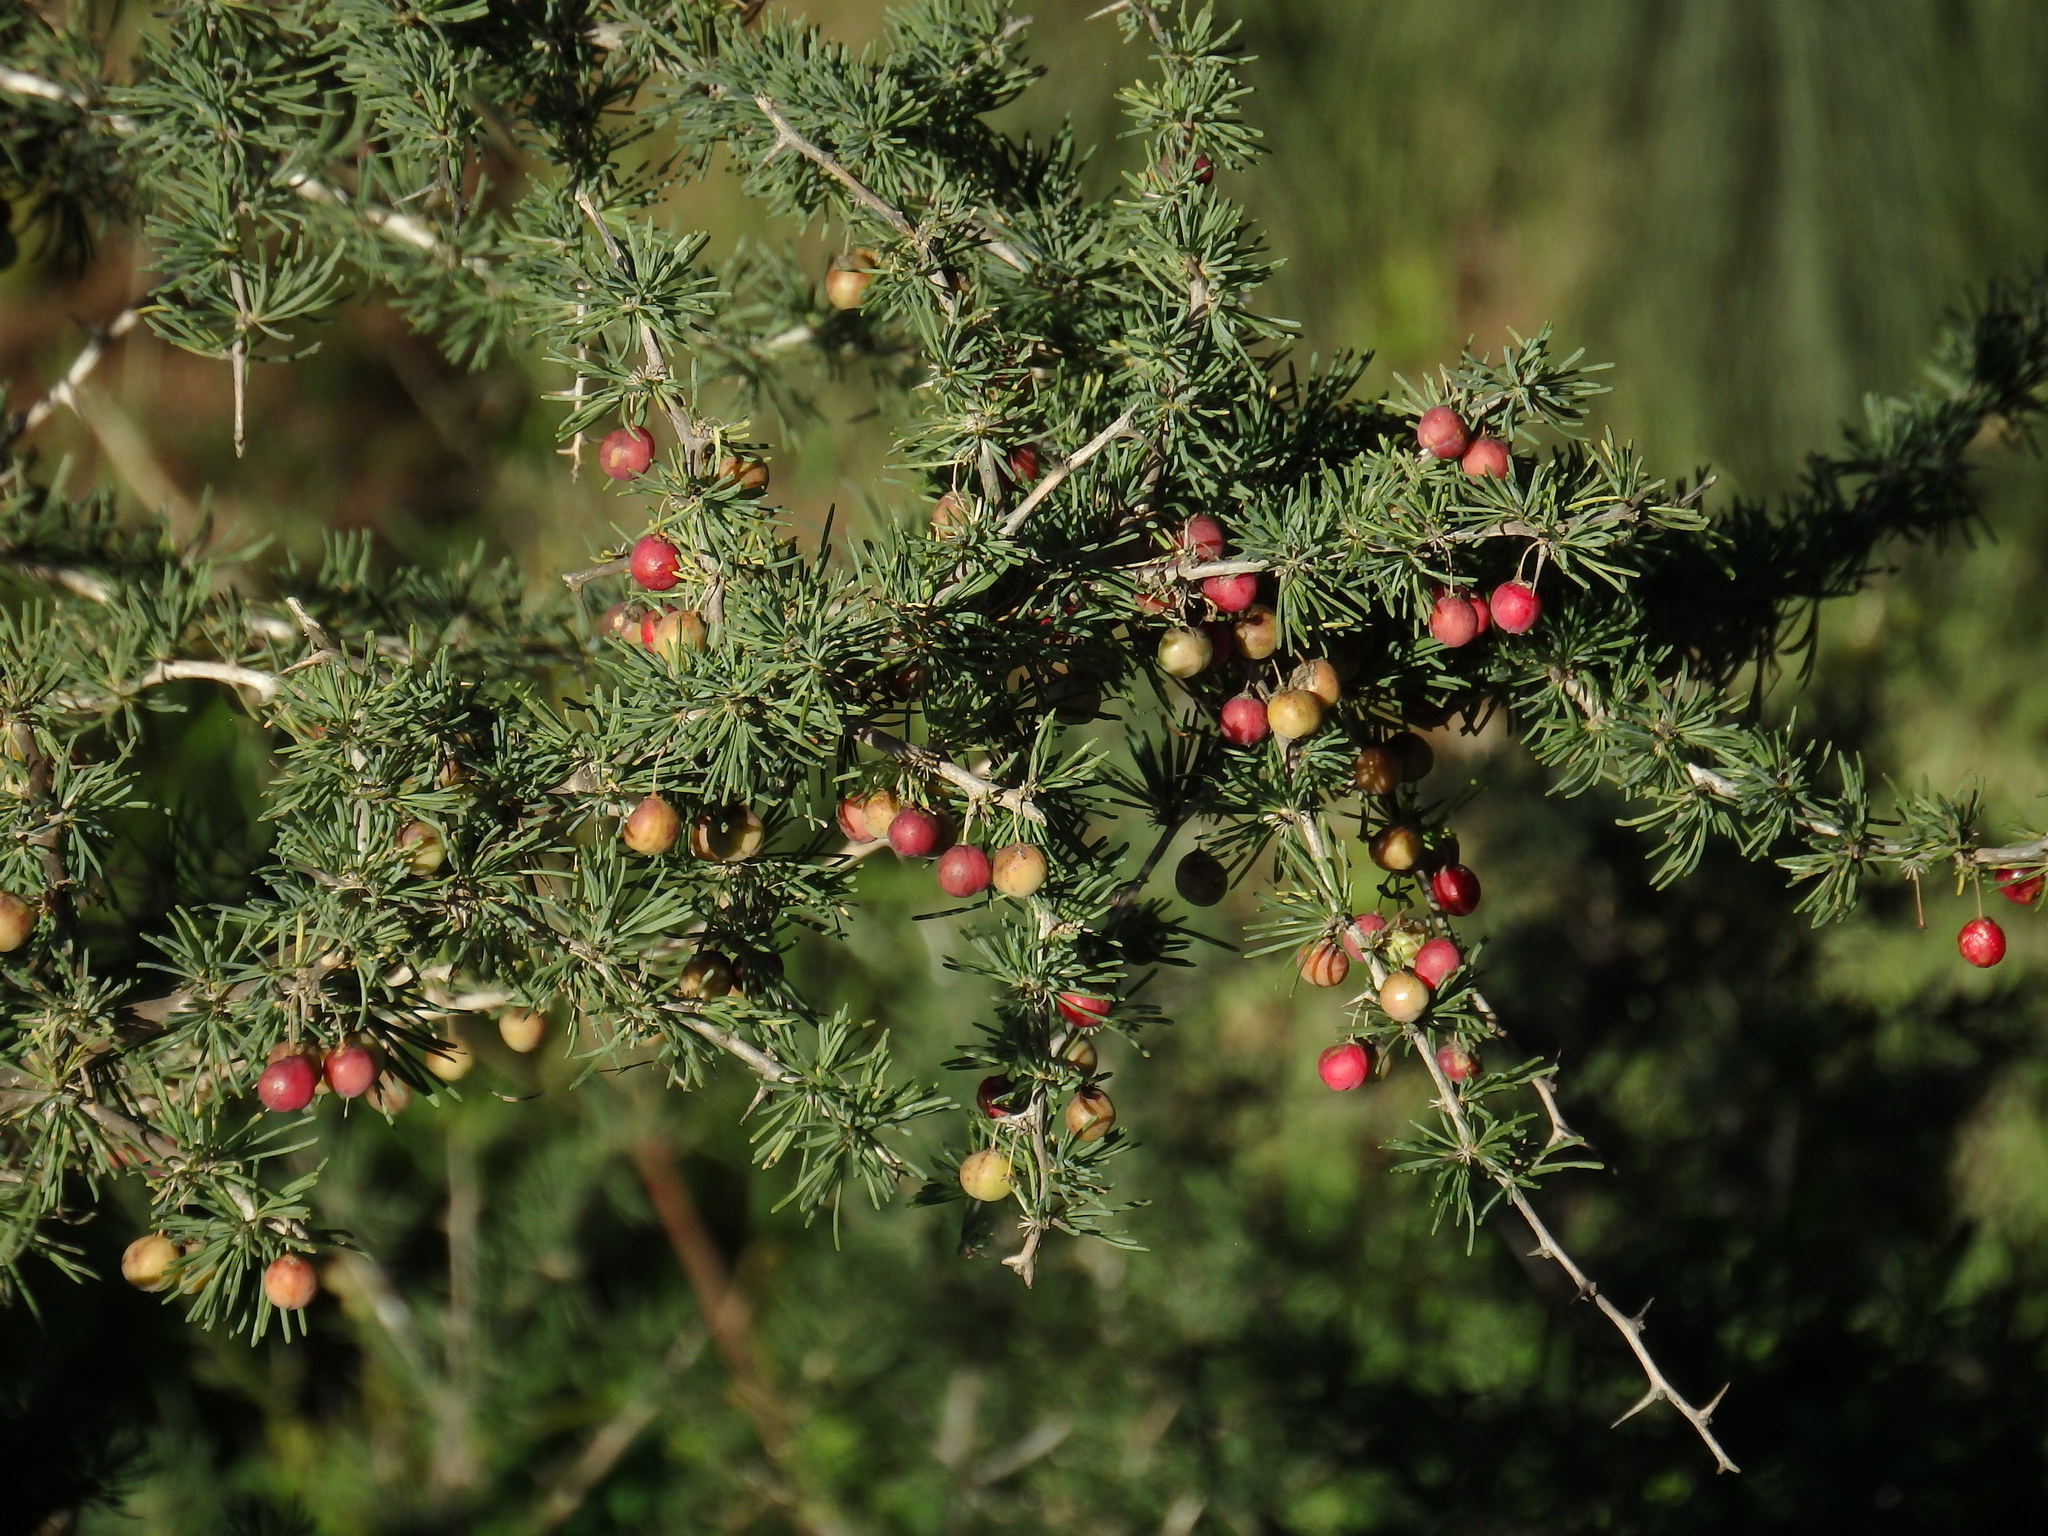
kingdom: Plantae
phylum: Tracheophyta
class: Liliopsida
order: Asparagales
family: Asparagaceae
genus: Asparagus
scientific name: Asparagus albus
